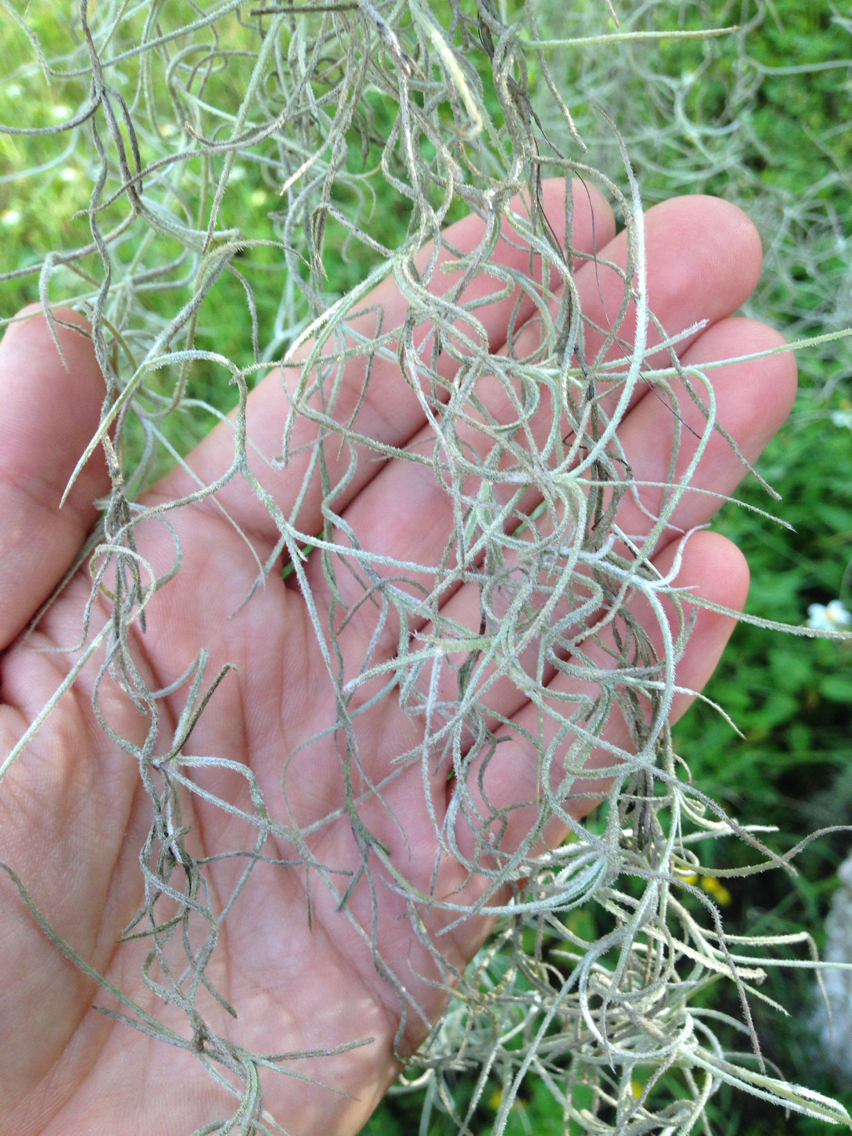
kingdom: Plantae
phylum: Tracheophyta
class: Liliopsida
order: Poales
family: Bromeliaceae
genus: Tillandsia
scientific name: Tillandsia usneoides
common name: Spanish moss
